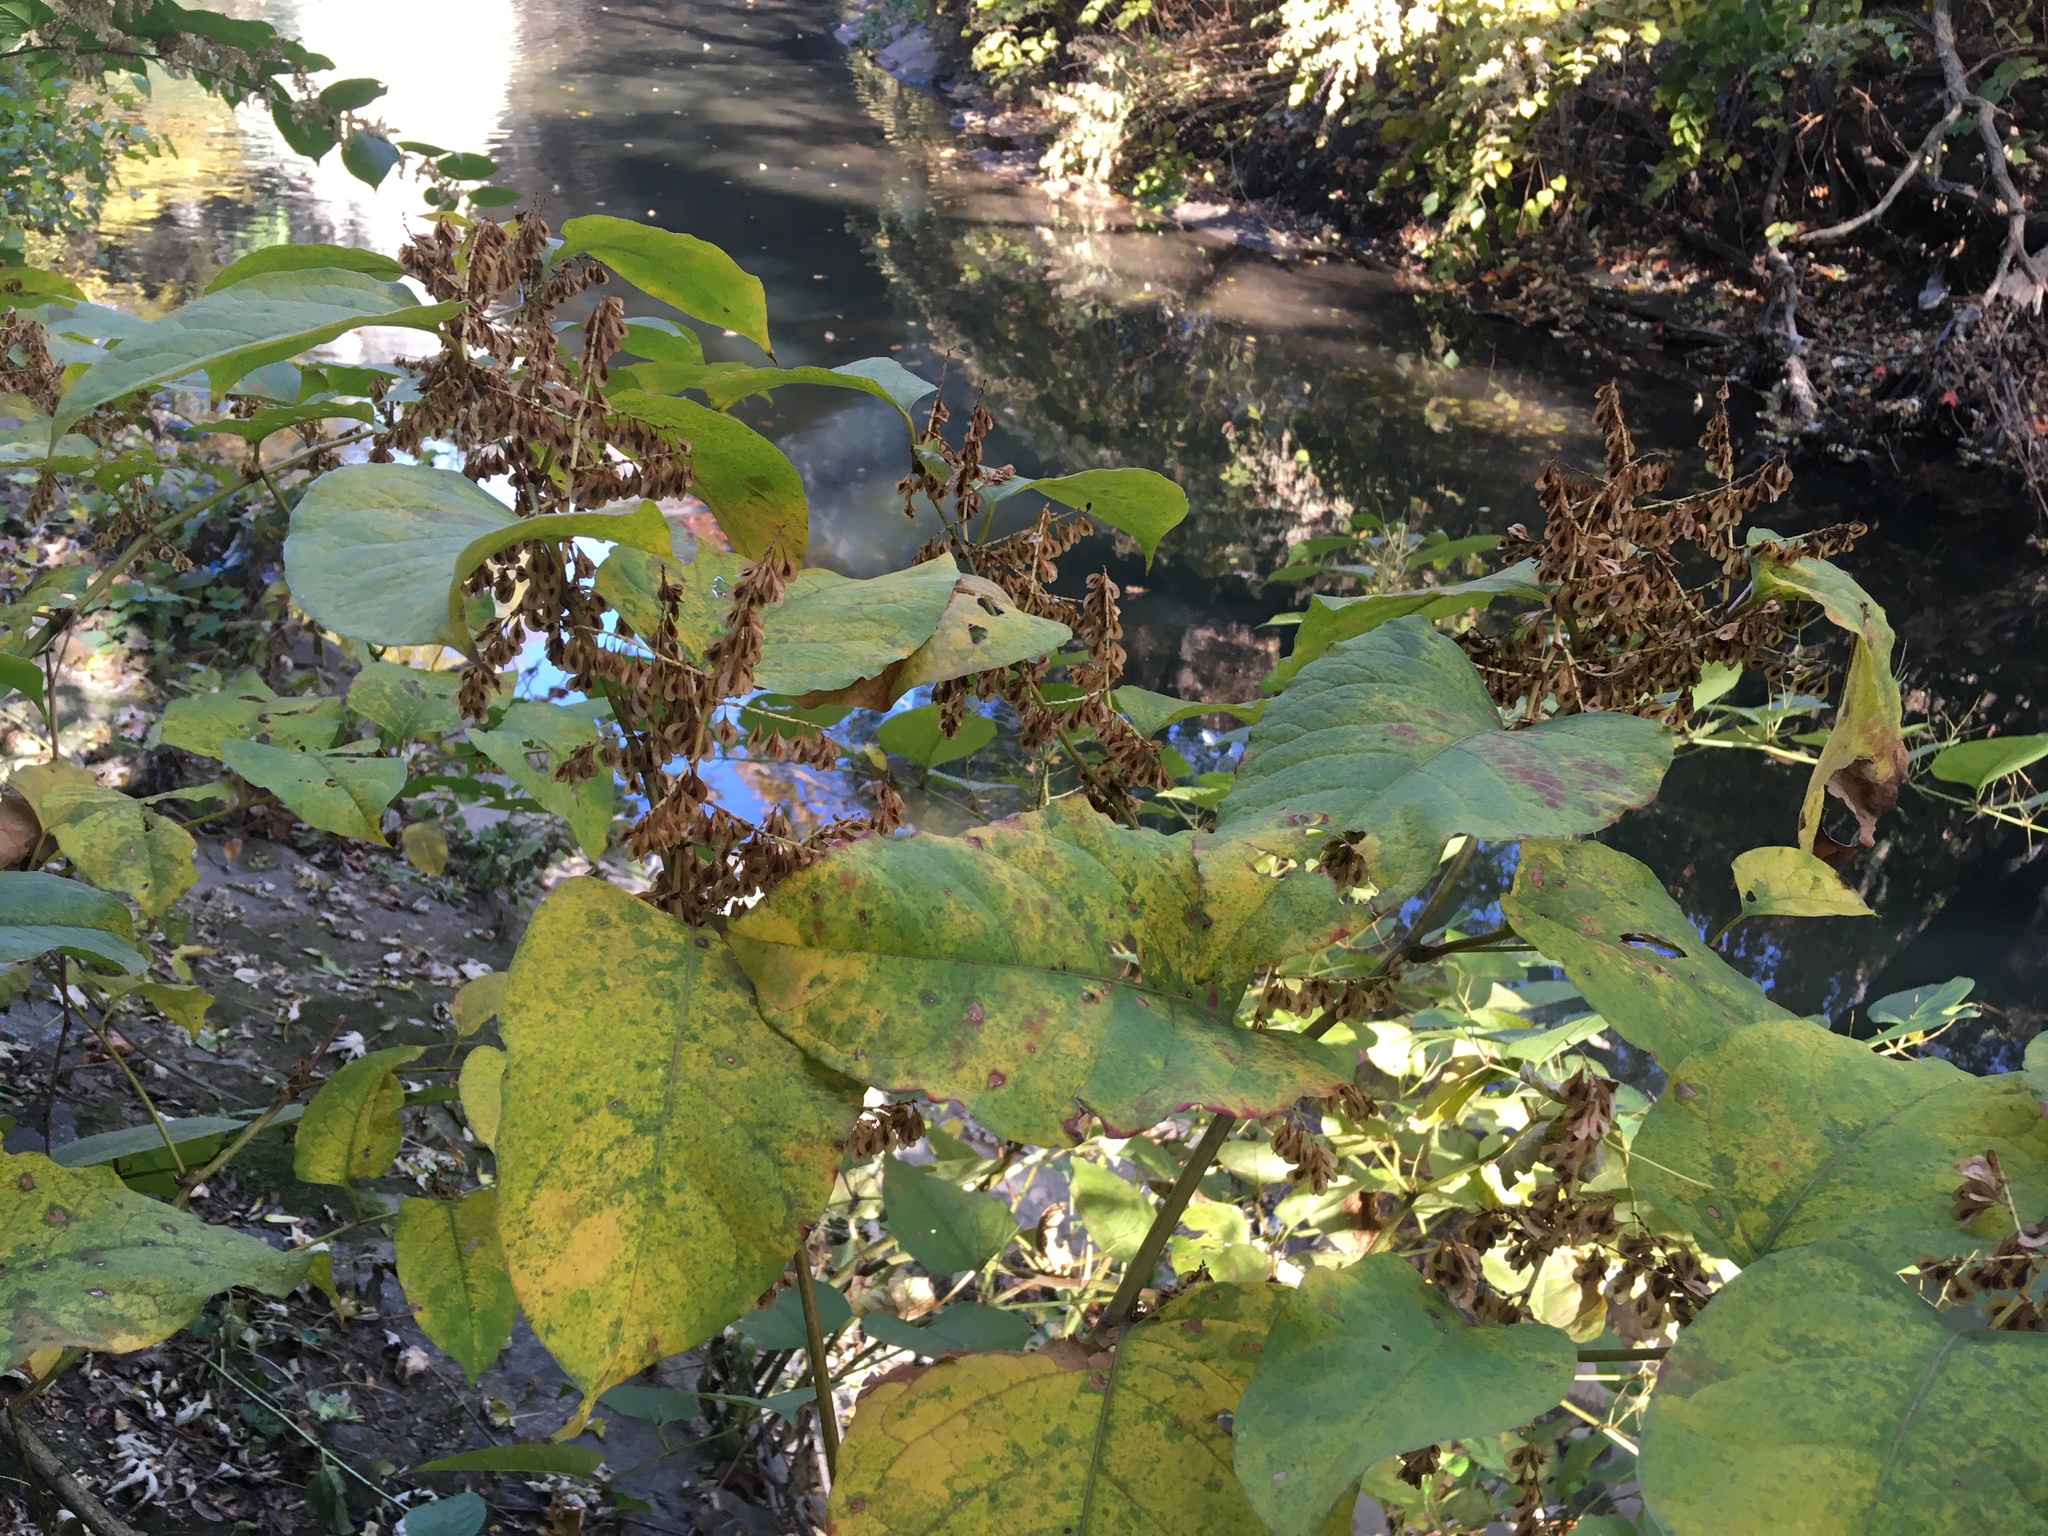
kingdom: Plantae
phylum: Tracheophyta
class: Magnoliopsida
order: Caryophyllales
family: Polygonaceae
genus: Reynoutria
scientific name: Reynoutria japonica
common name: Japanese knotweed
